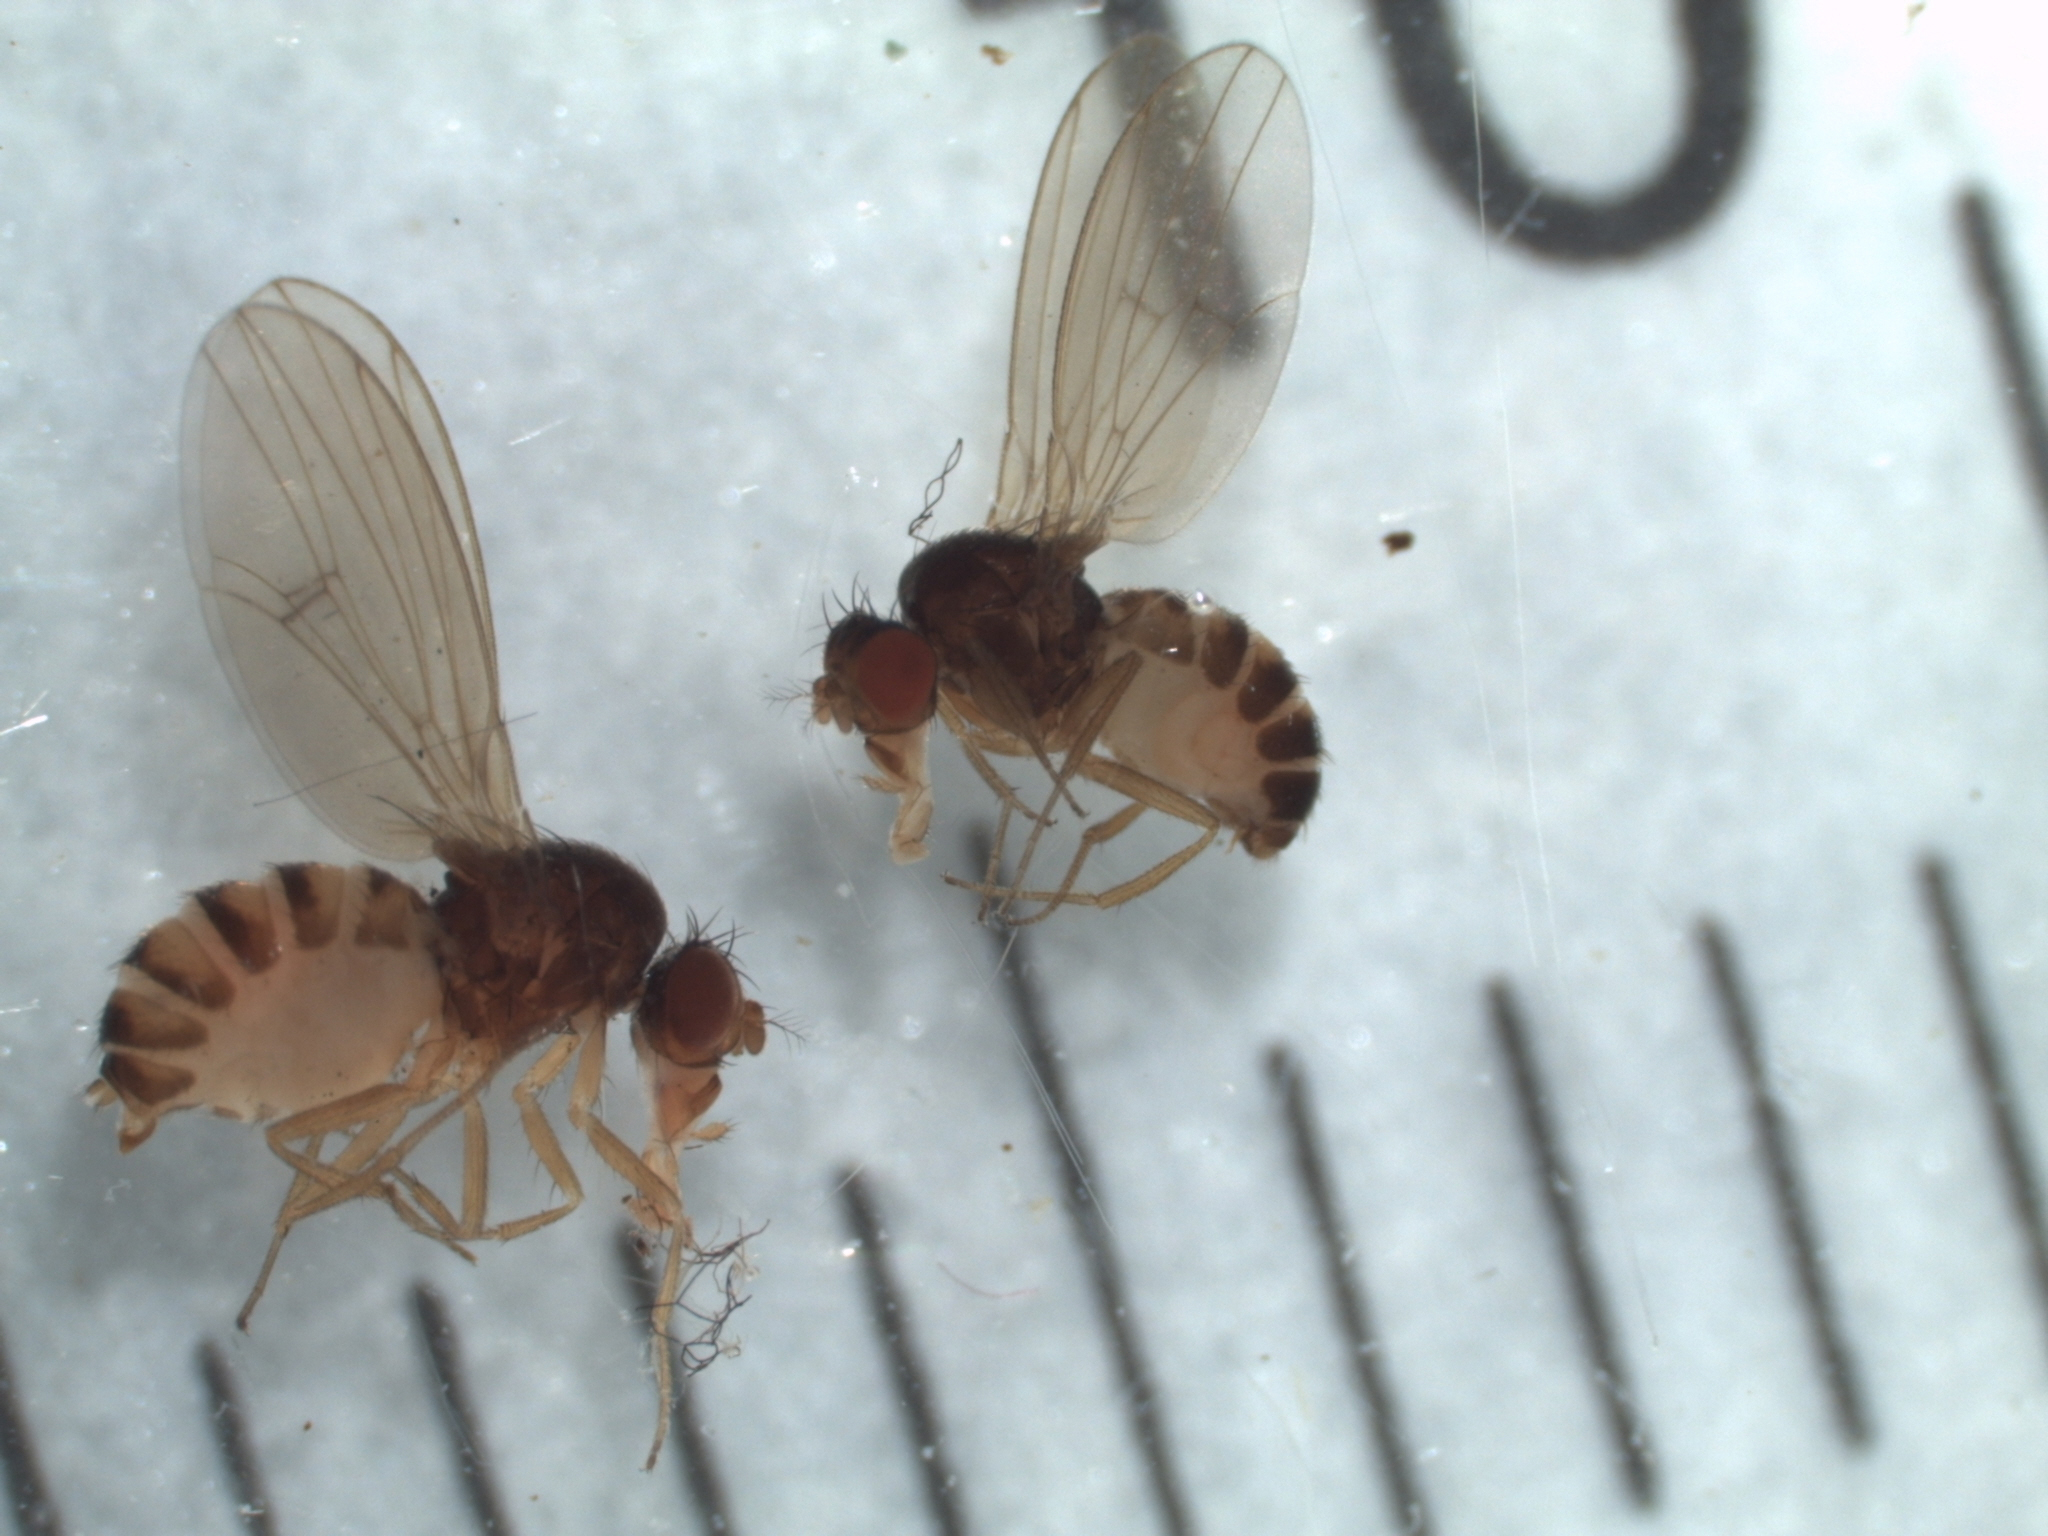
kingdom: Animalia
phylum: Arthropoda
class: Insecta
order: Diptera
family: Drosophilidae
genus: Drosophila
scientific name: Drosophila neotestacea
